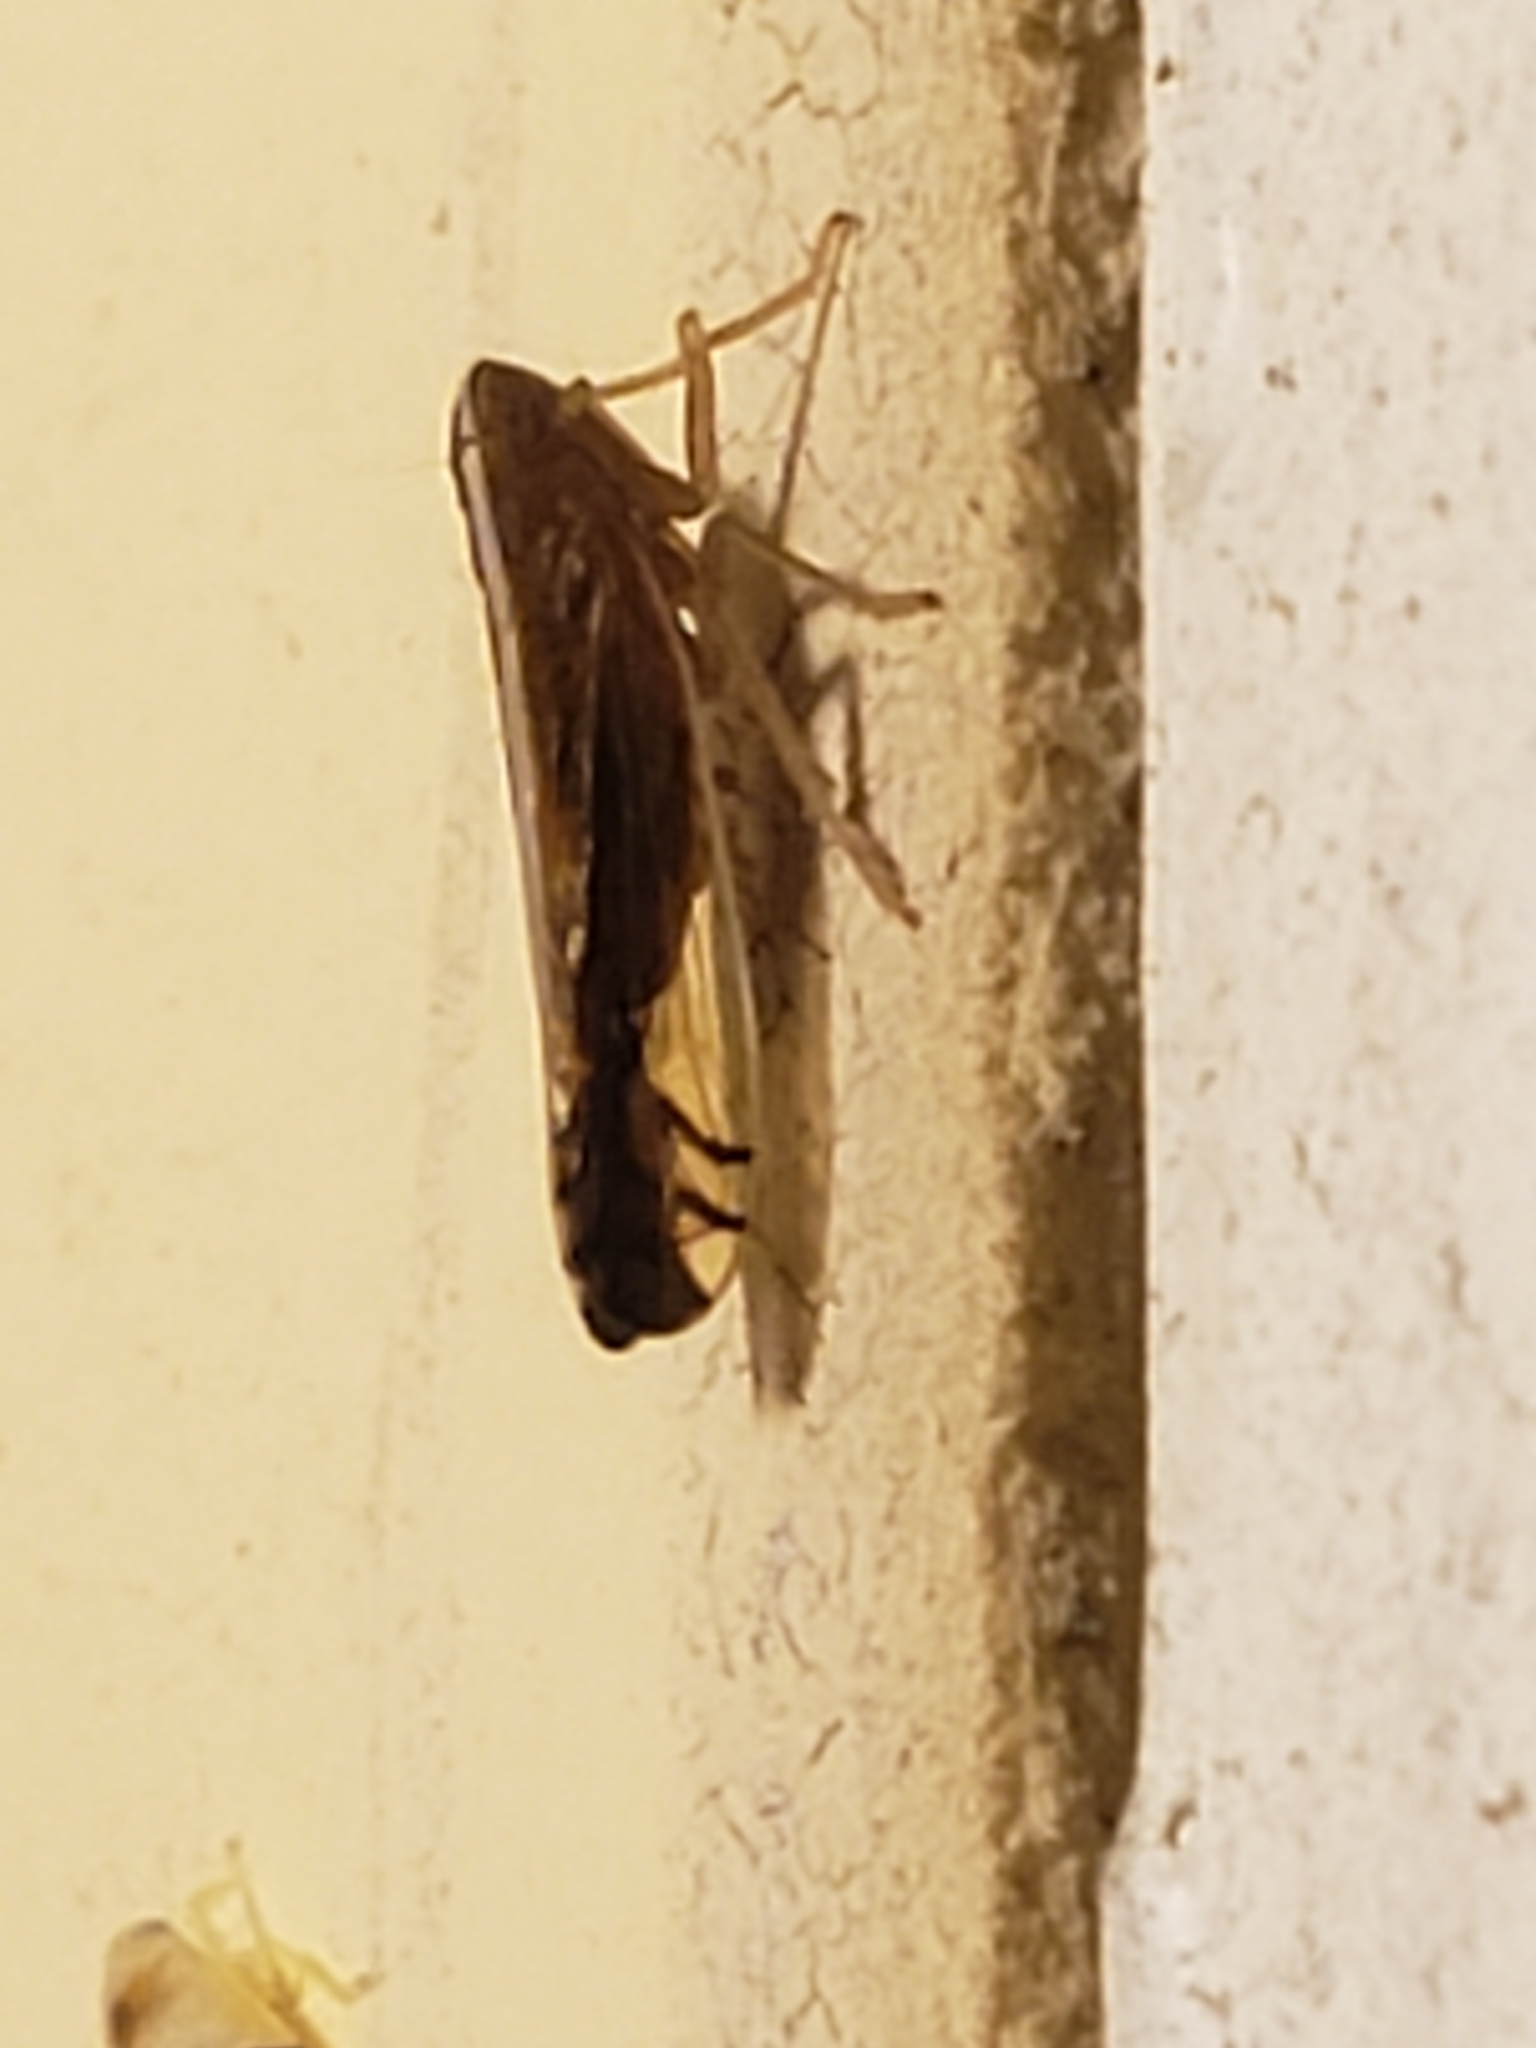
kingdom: Animalia
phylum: Arthropoda
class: Insecta
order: Hemiptera
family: Delphacidae
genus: Stenocranus
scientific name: Stenocranus brunneus
